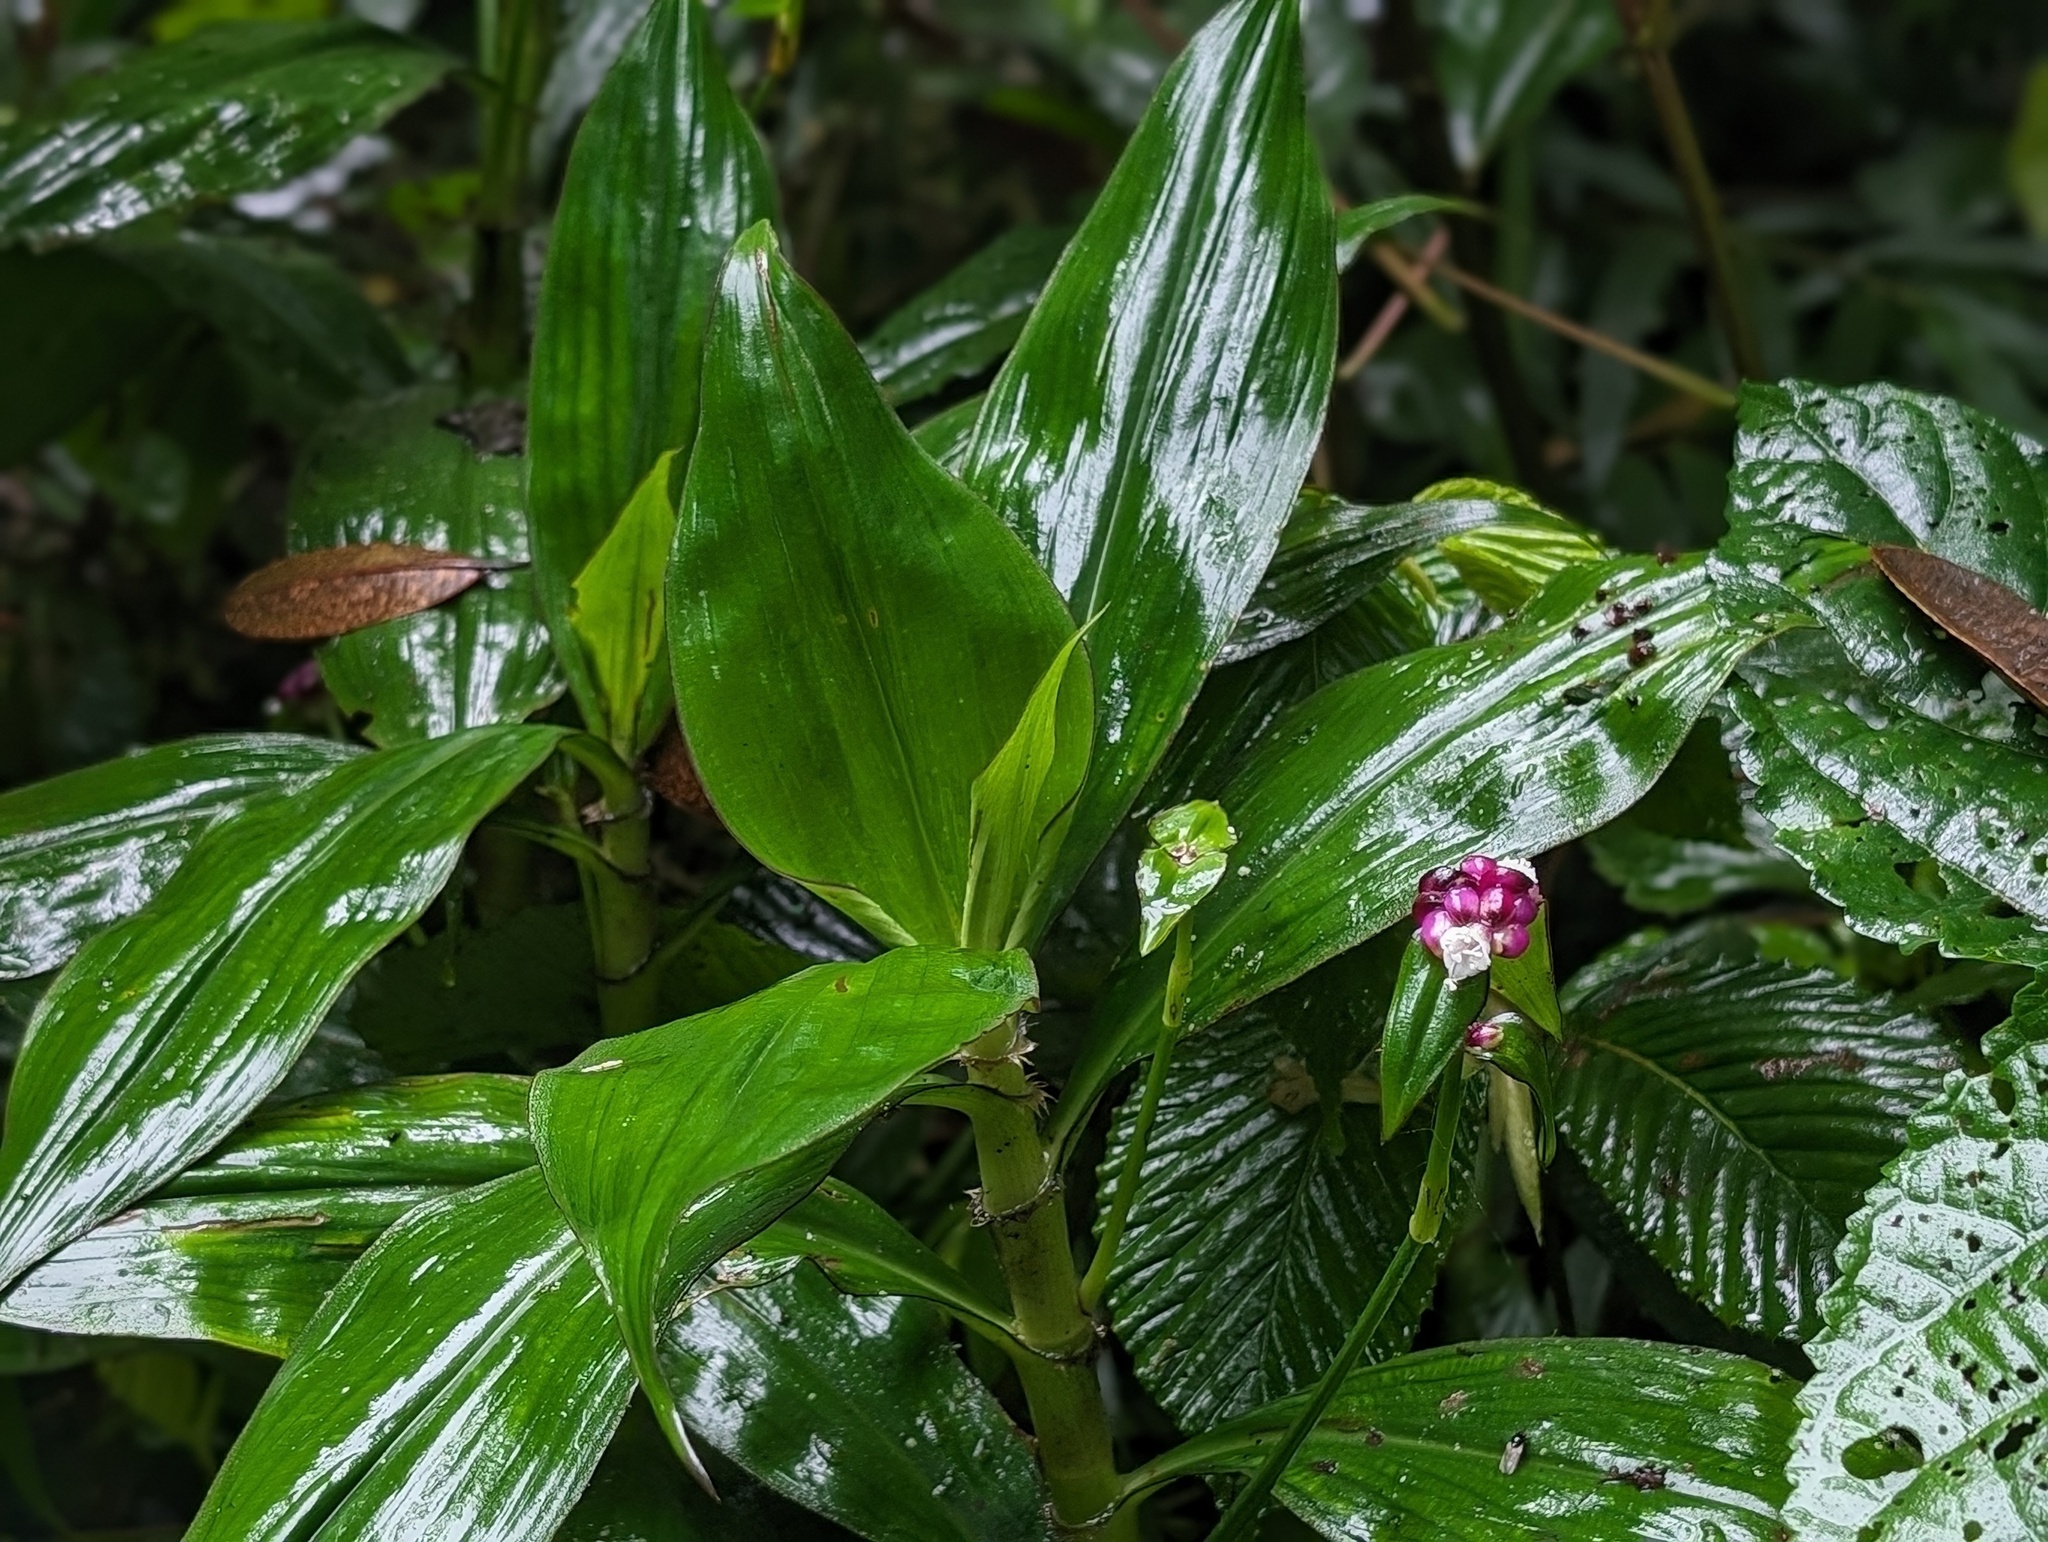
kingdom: Plantae
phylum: Tracheophyta
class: Liliopsida
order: Commelinales
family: Commelinaceae
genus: Tradescantia
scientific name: Tradescantia zanonia
